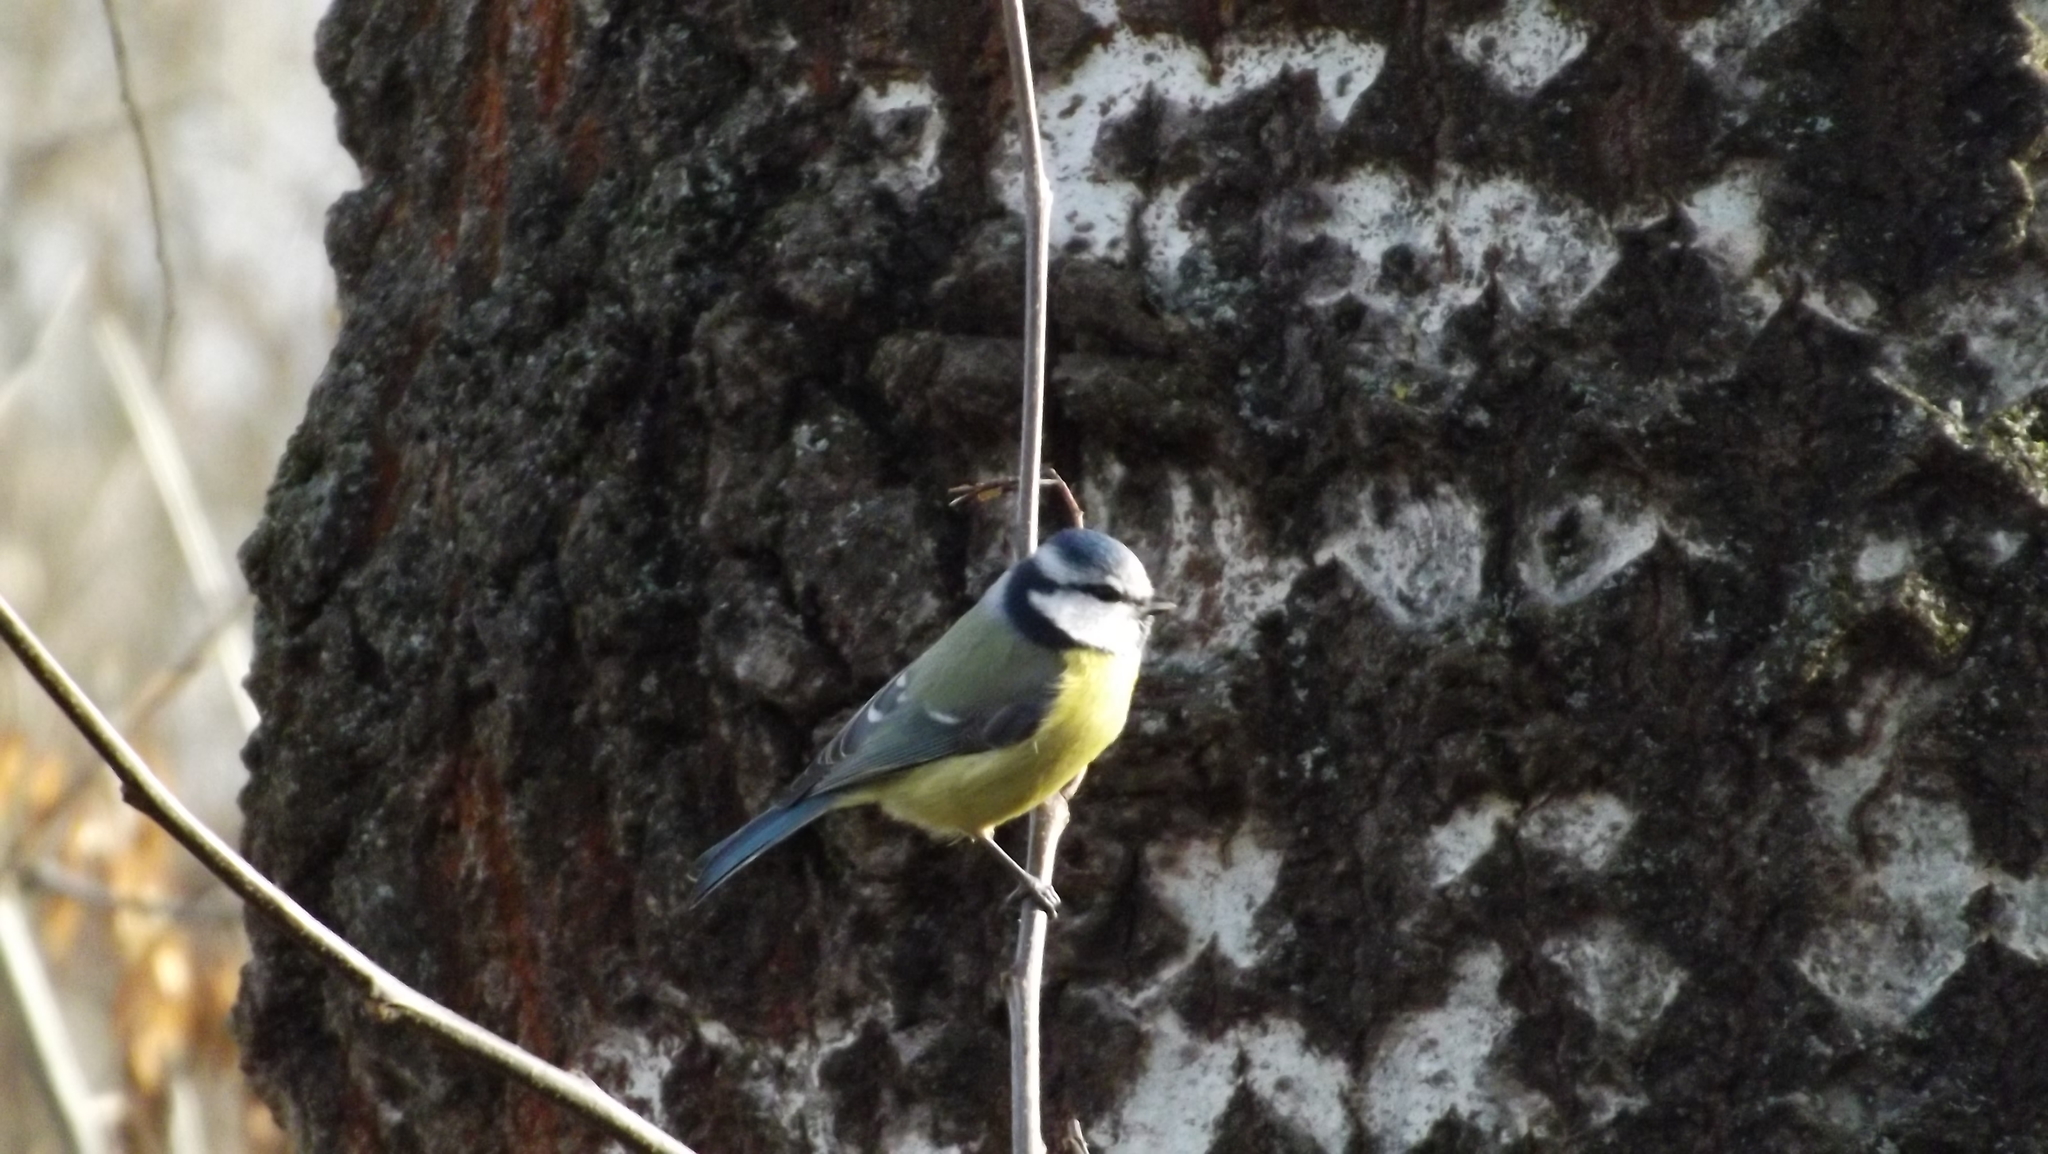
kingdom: Animalia
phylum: Chordata
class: Aves
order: Passeriformes
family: Paridae
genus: Cyanistes
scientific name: Cyanistes caeruleus
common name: Eurasian blue tit
